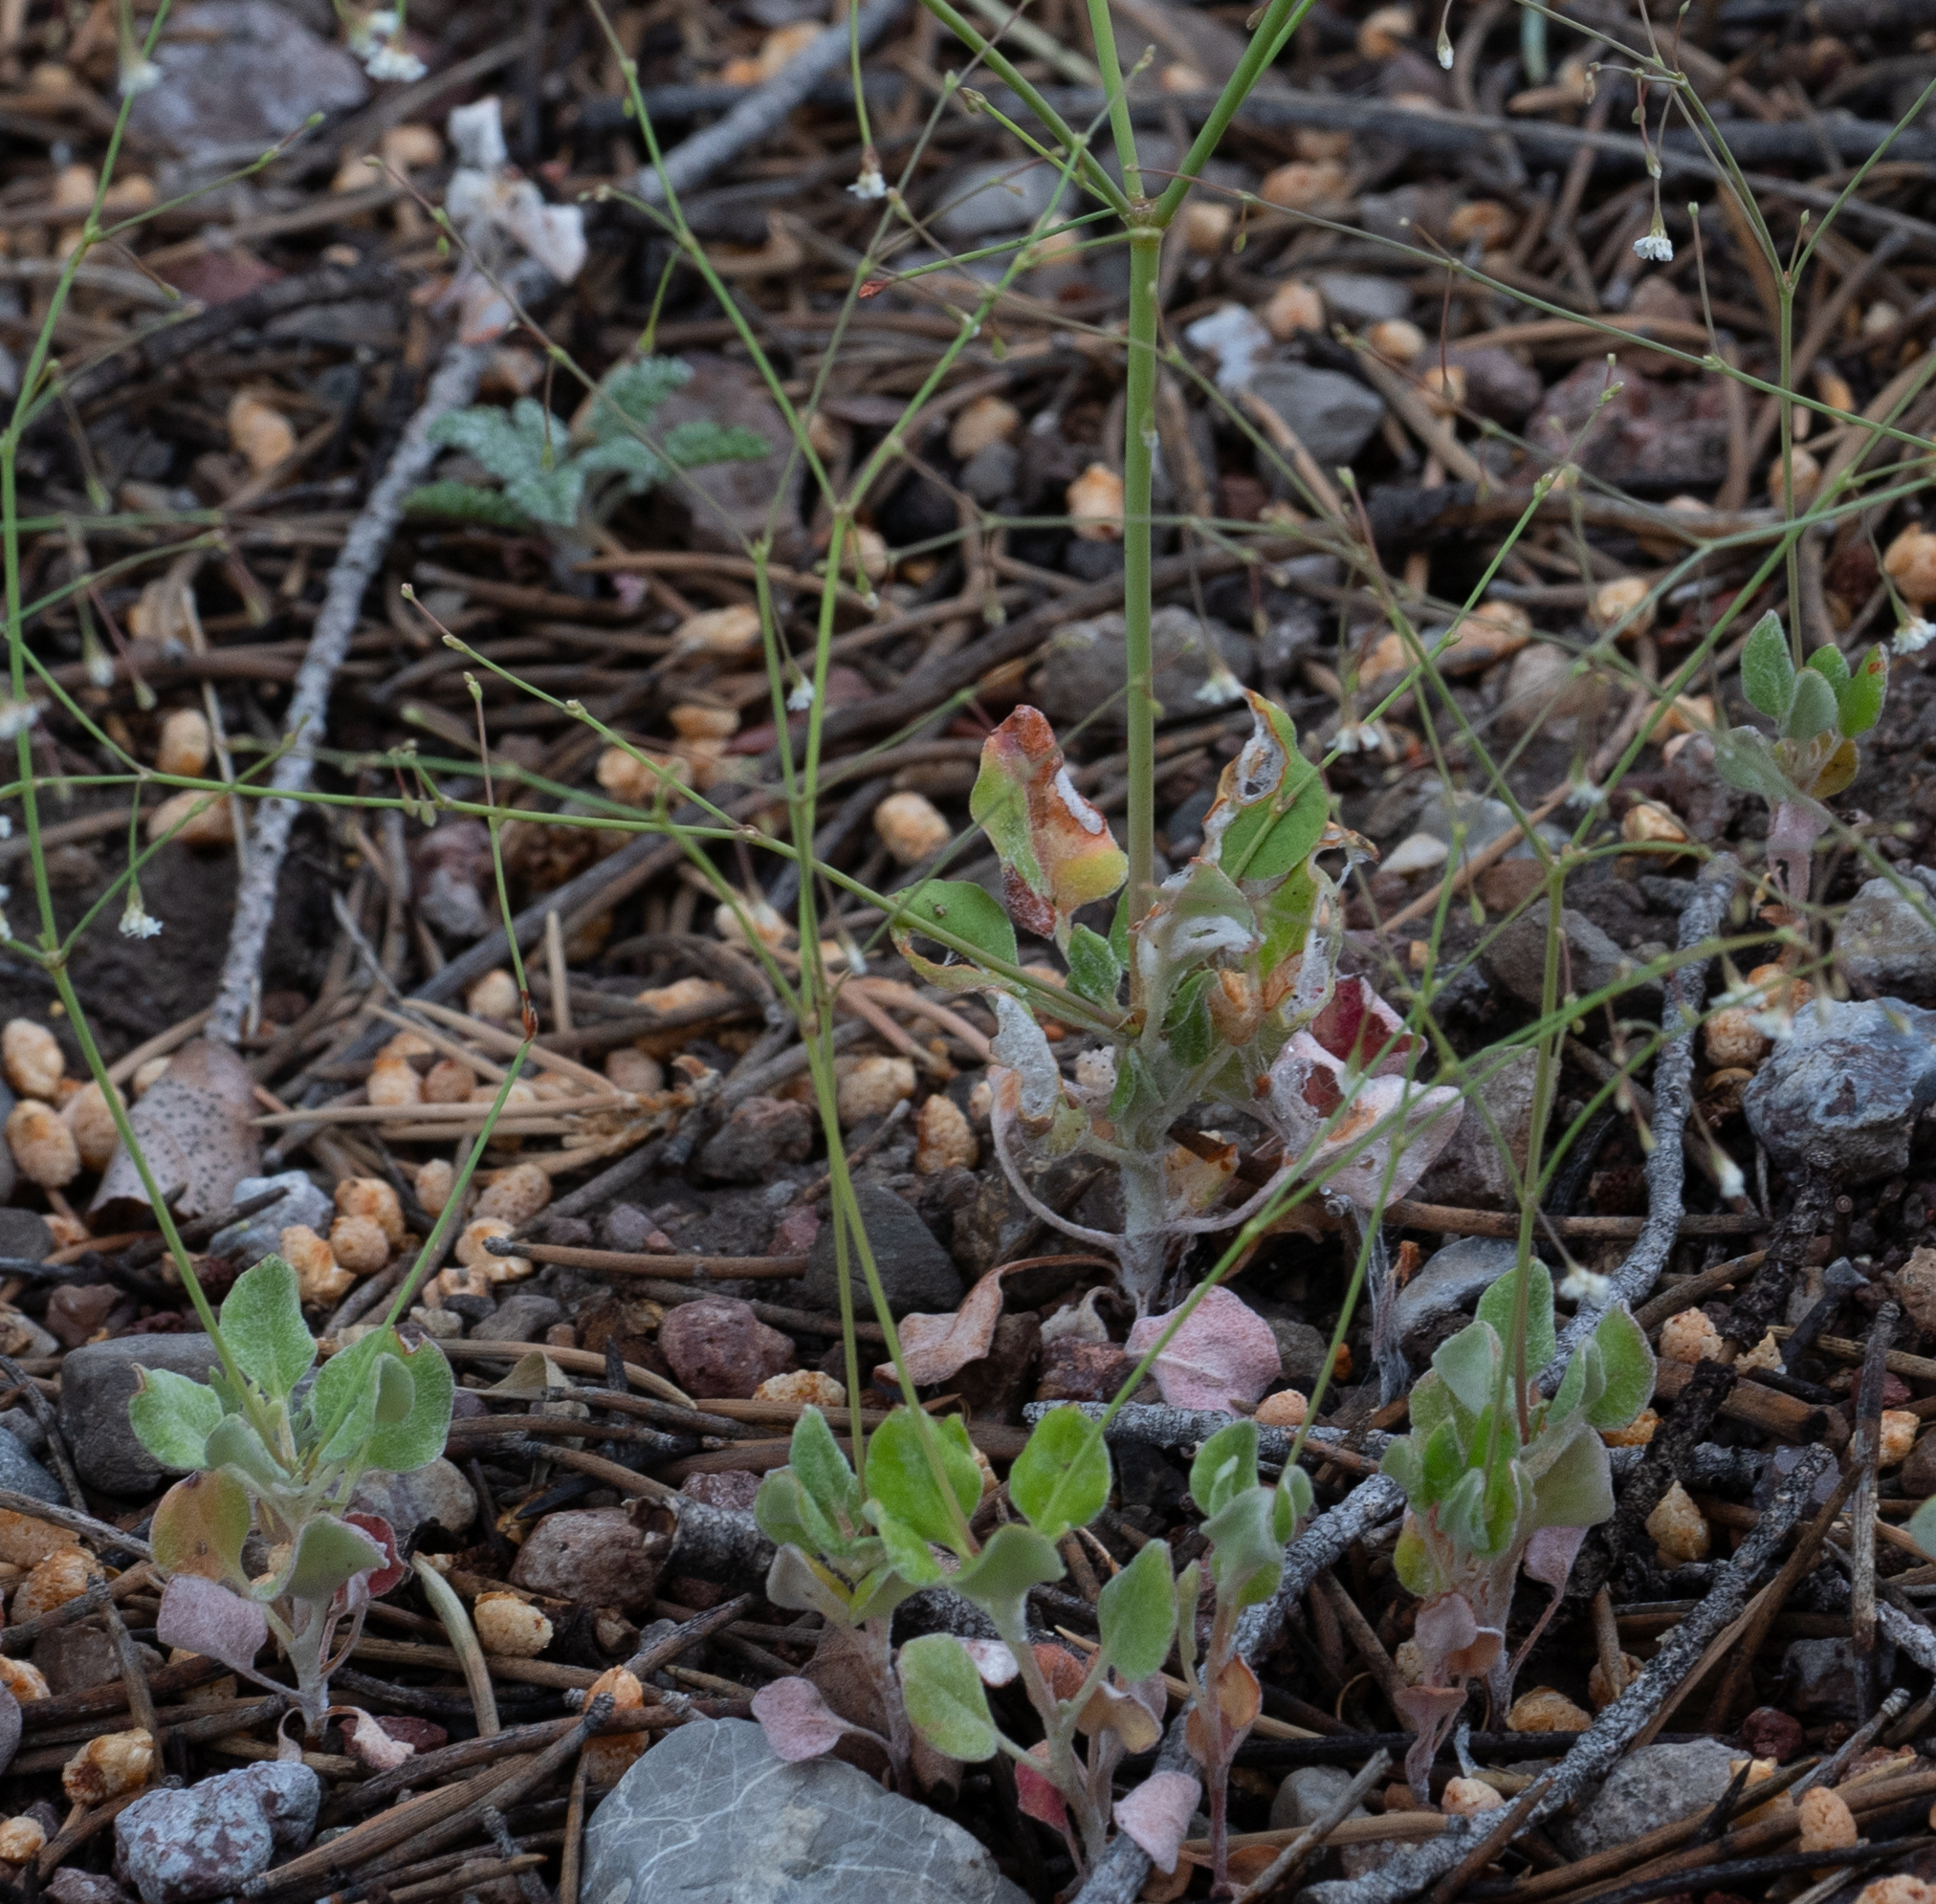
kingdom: Plantae
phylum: Tracheophyta
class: Magnoliopsida
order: Caryophyllales
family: Polygonaceae
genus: Eriogonum
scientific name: Eriogonum watsonii
